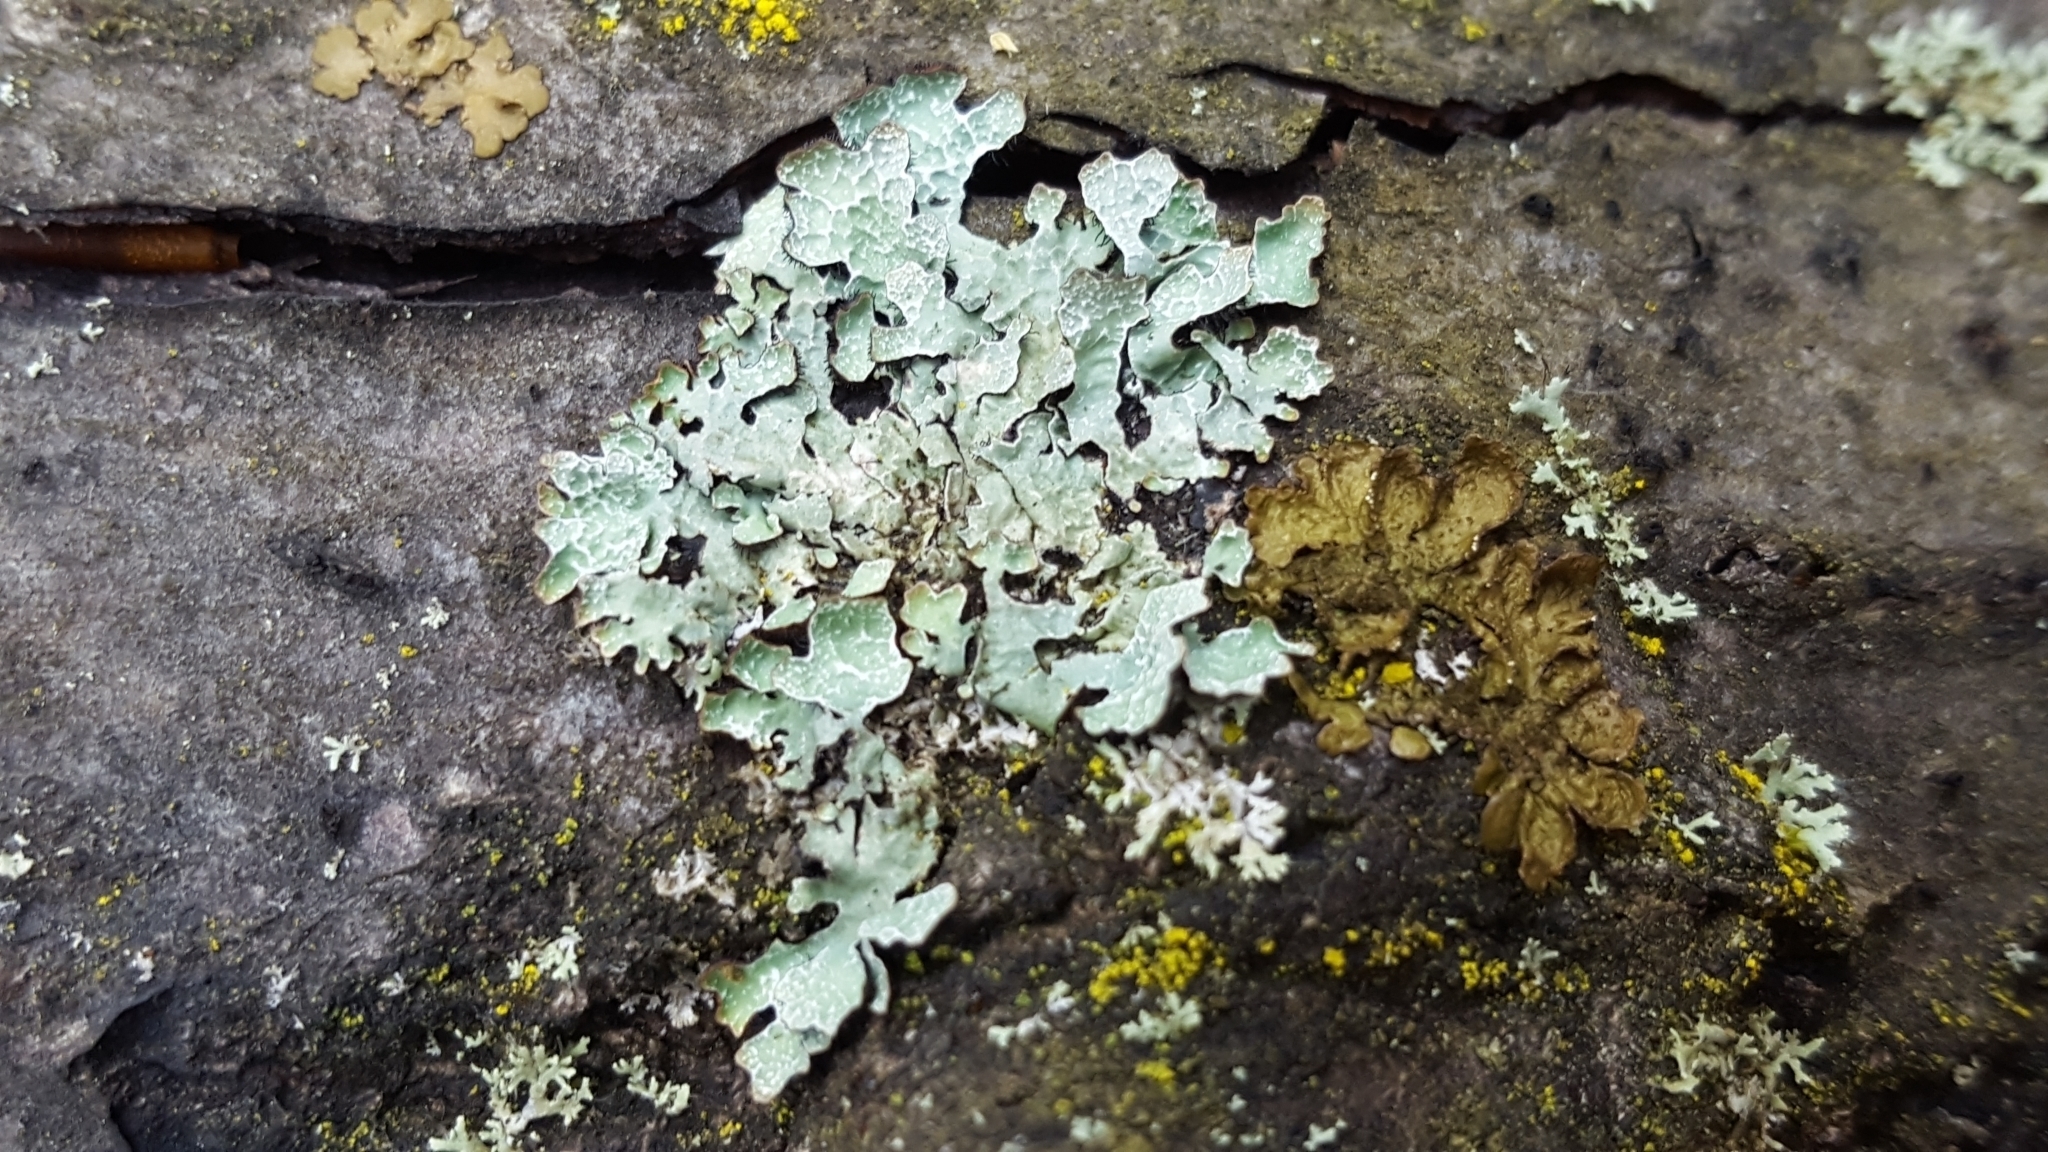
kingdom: Fungi
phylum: Ascomycota
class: Lecanoromycetes
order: Lecanorales
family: Parmeliaceae
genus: Parmelia
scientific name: Parmelia sulcata
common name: Netted shield lichen
